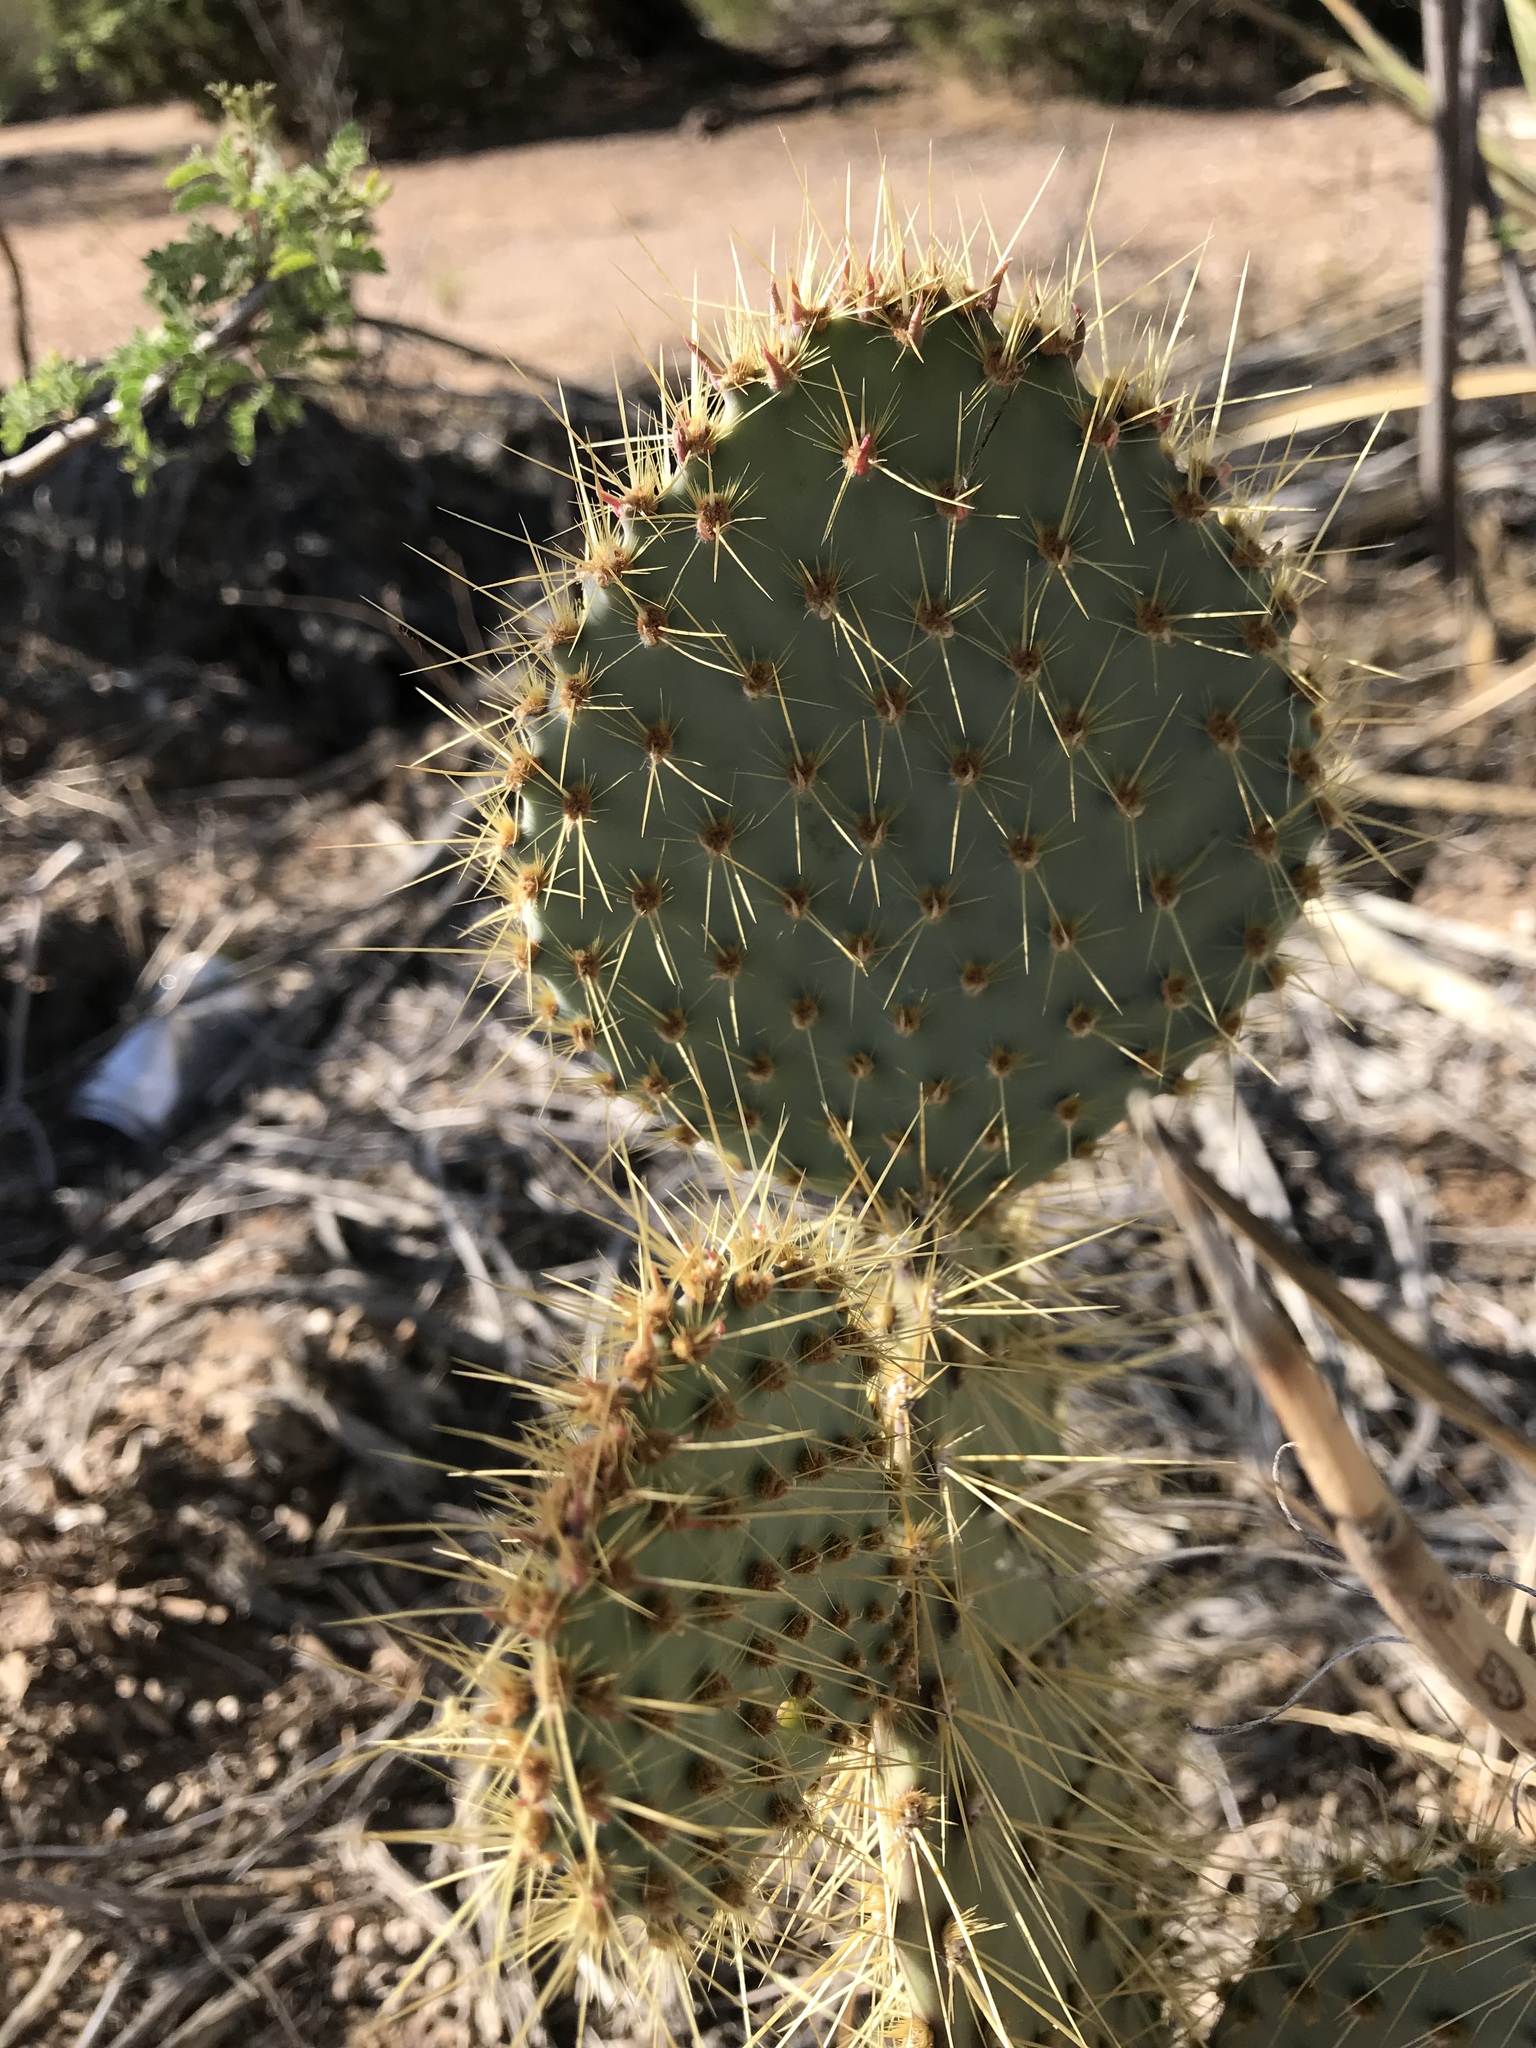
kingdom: Plantae
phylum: Tracheophyta
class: Magnoliopsida
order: Caryophyllales
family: Cactaceae
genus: Opuntia
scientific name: Opuntia chlorotica
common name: Dollar-joint prickly-pear
